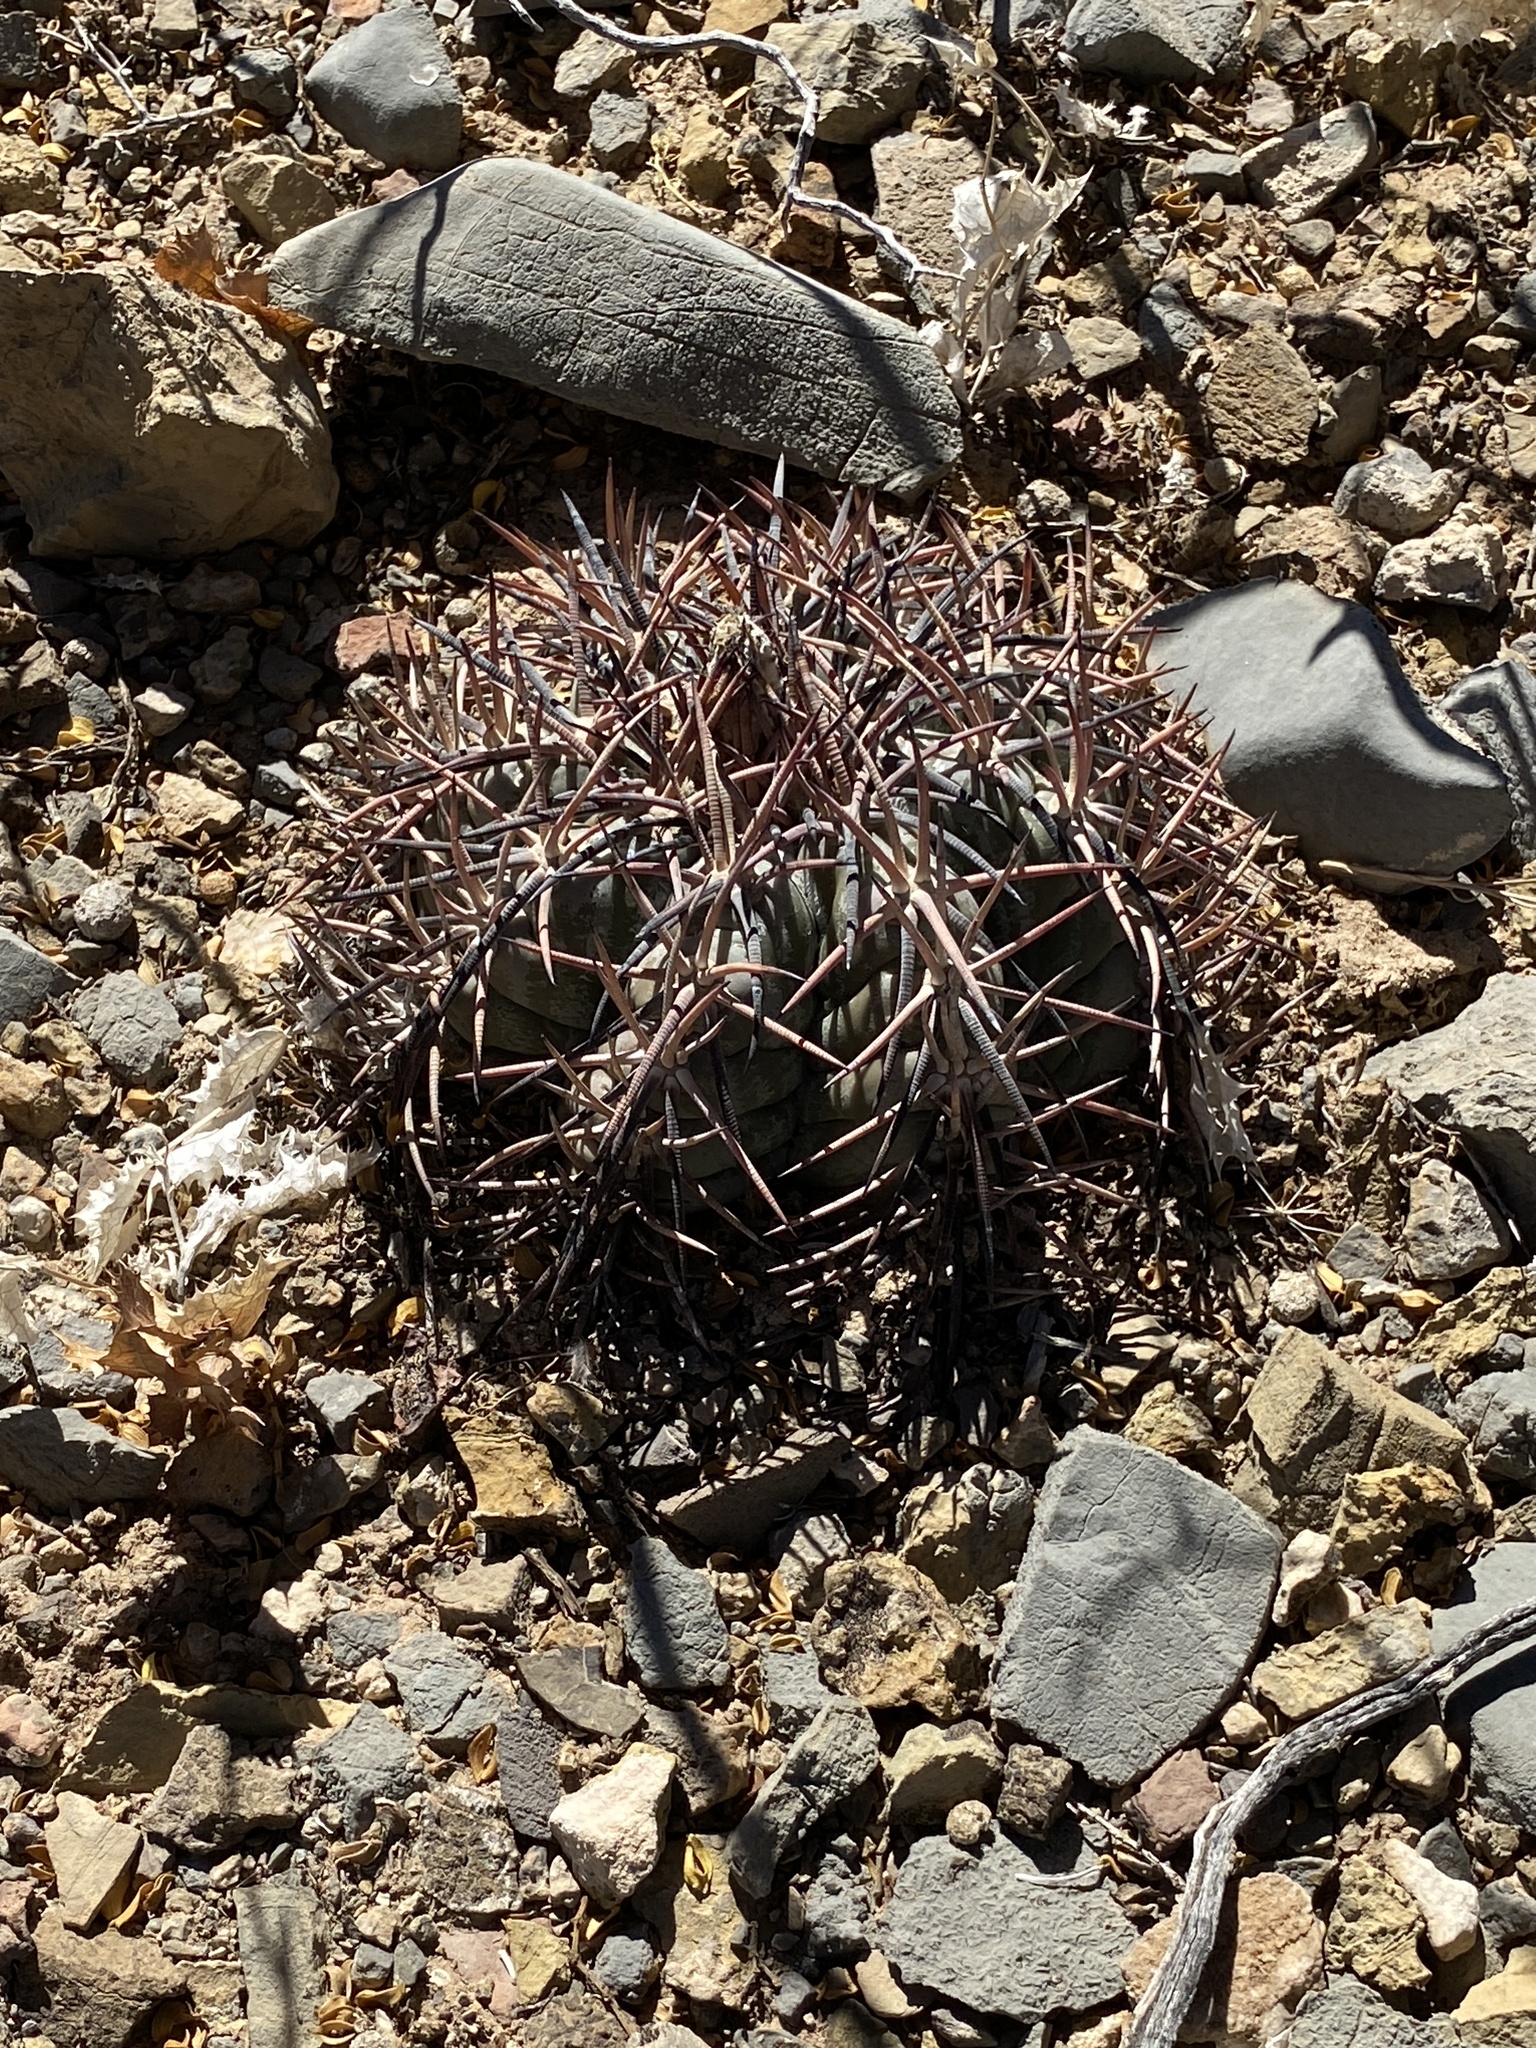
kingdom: Plantae
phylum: Tracheophyta
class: Magnoliopsida
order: Caryophyllales
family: Cactaceae
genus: Echinocactus
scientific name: Echinocactus horizonthalonius
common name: Devilshead
